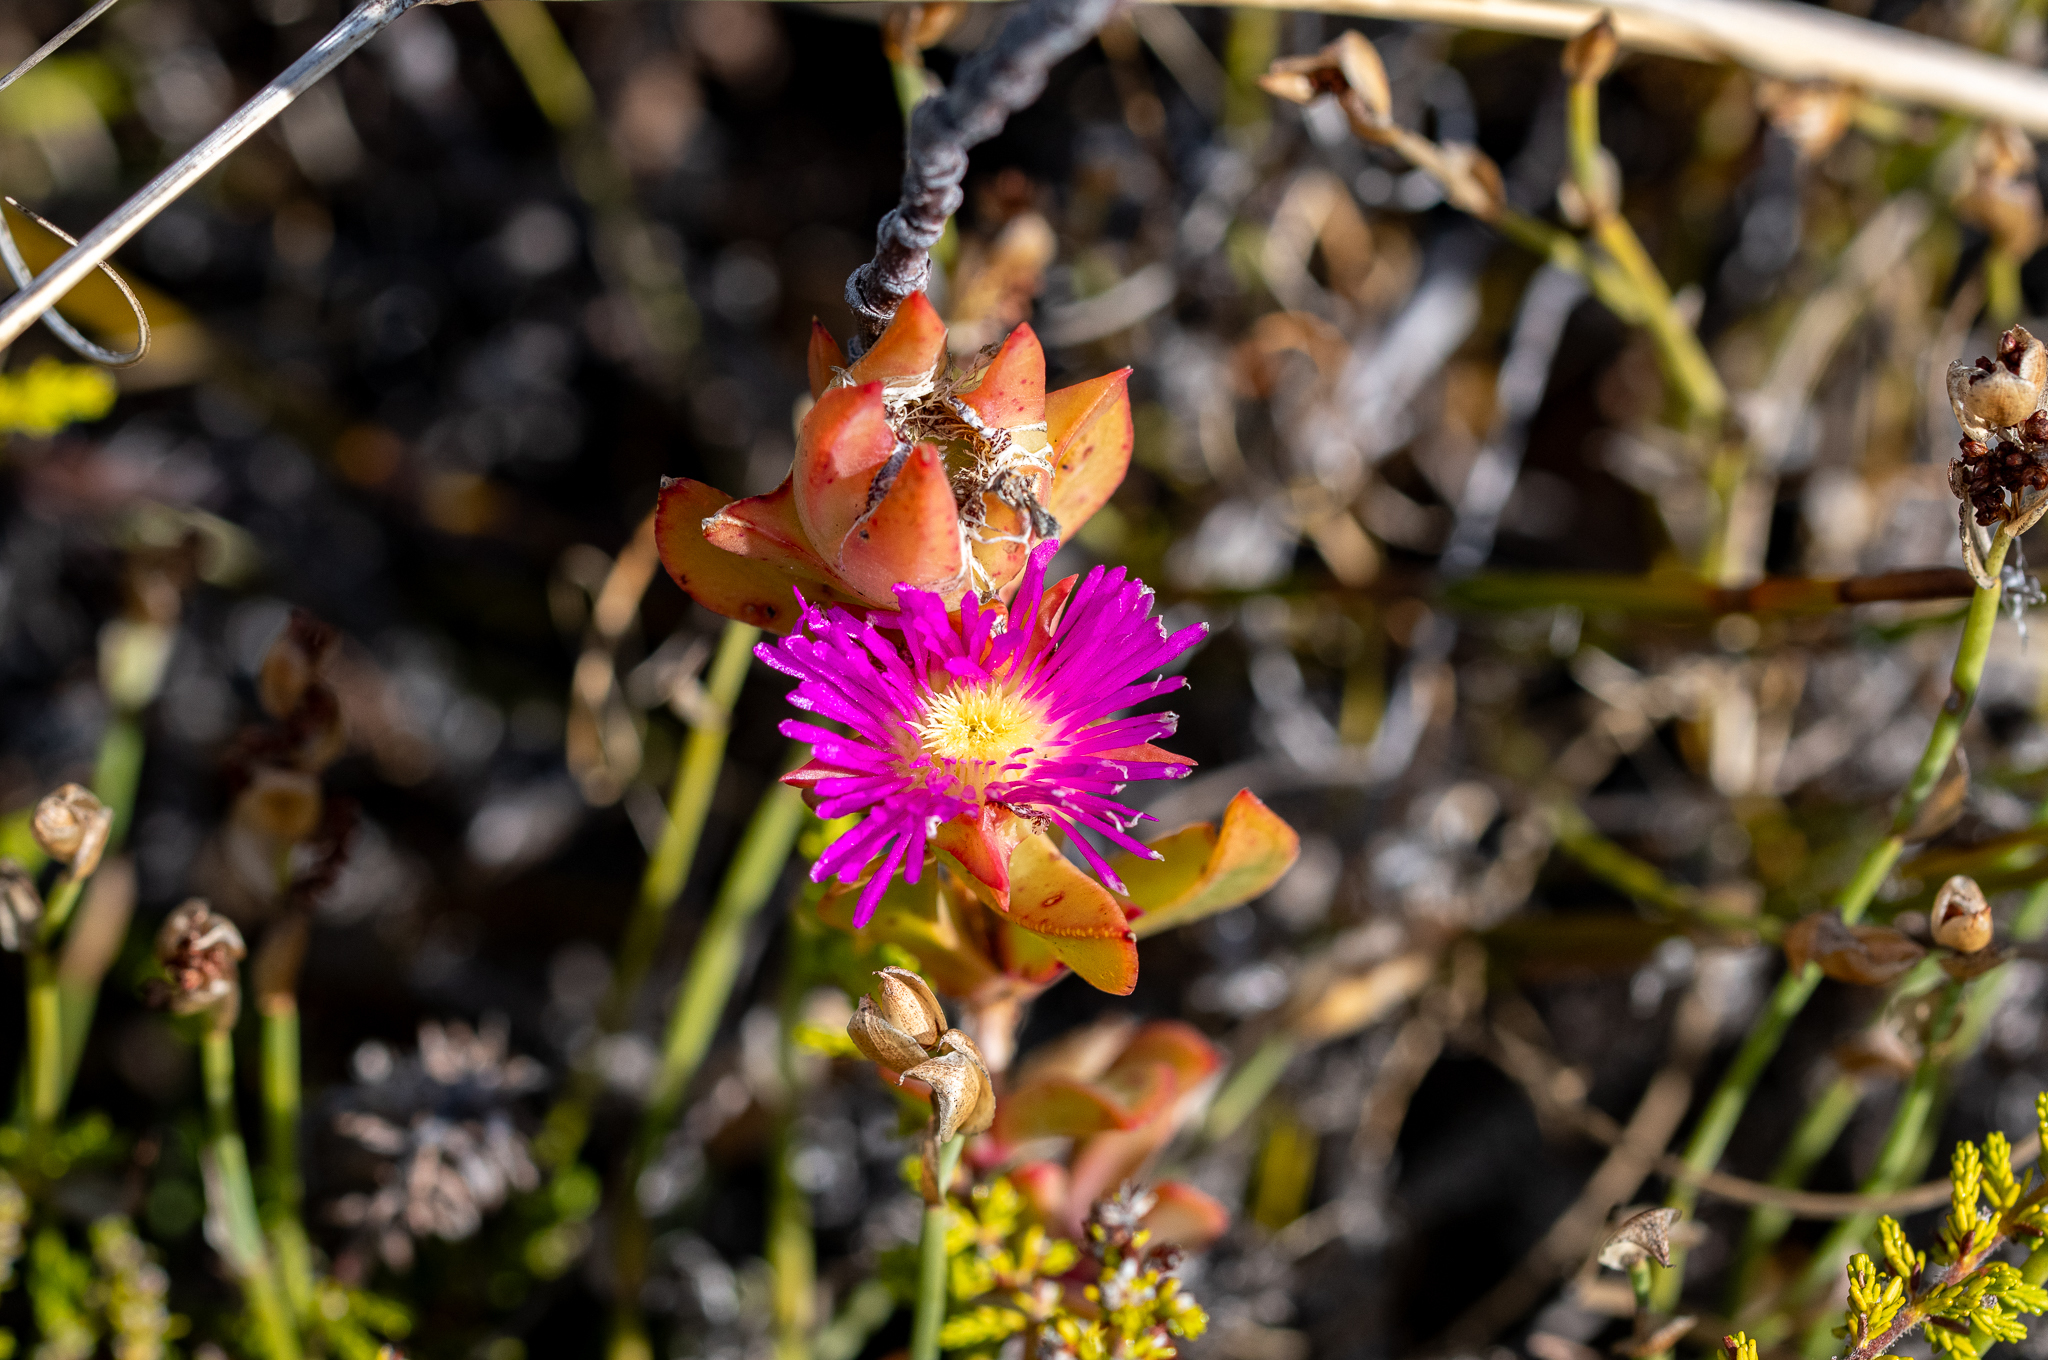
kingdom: Plantae
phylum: Tracheophyta
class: Magnoliopsida
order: Caryophyllales
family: Aizoaceae
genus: Erepsia
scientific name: Erepsia steytlerae
